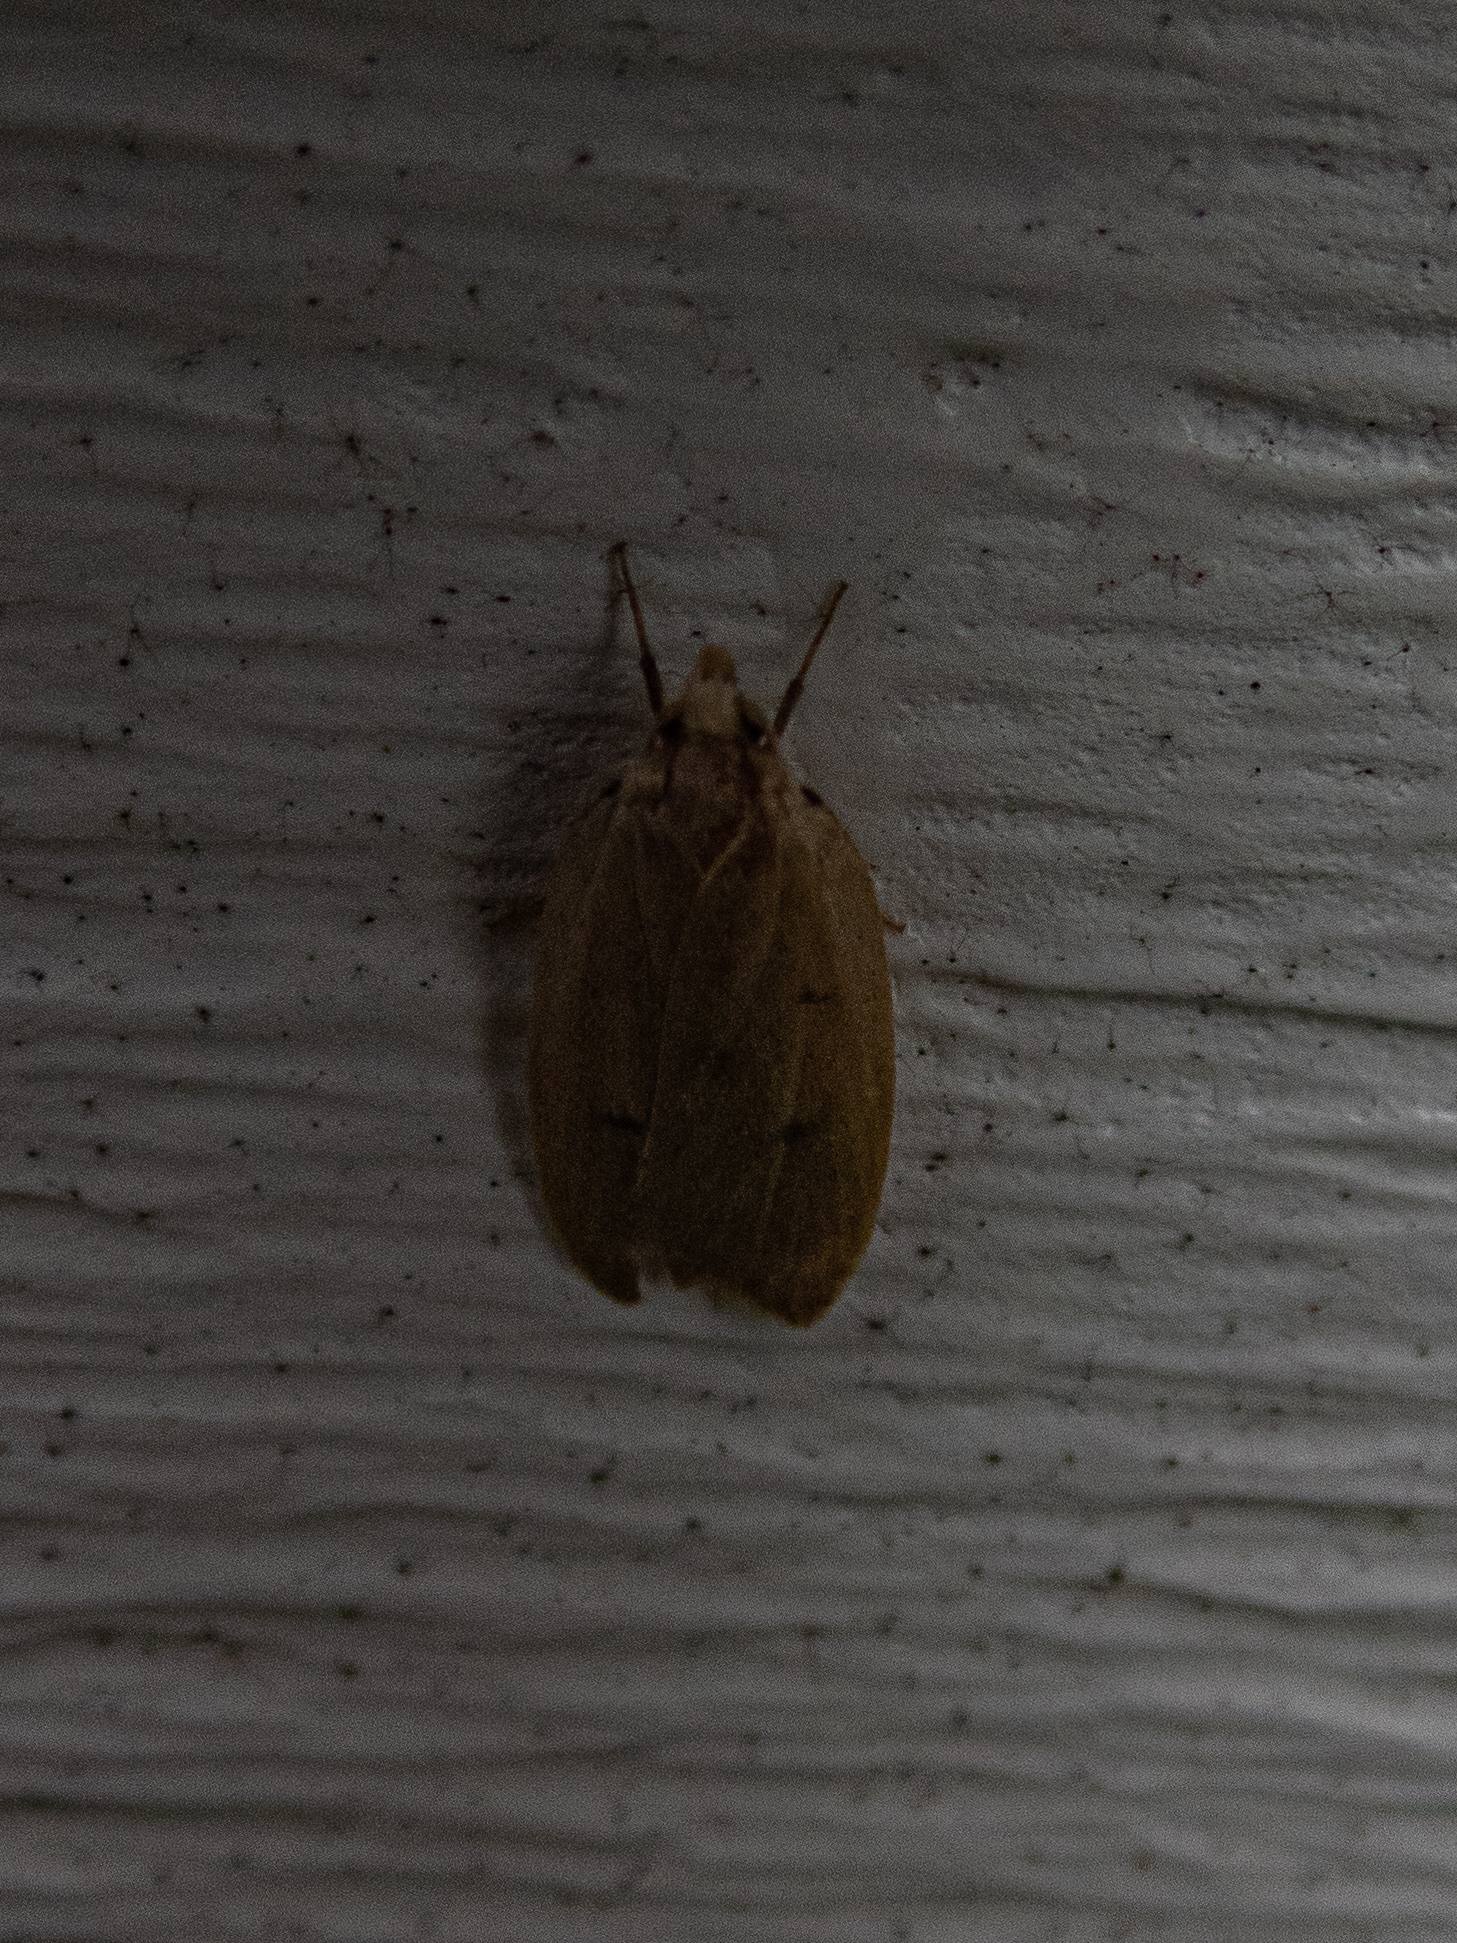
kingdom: Animalia
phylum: Arthropoda
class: Insecta
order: Lepidoptera
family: Peleopodidae
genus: Machimia
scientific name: Machimia tentoriferella
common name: Gold-striped leaftier moth
